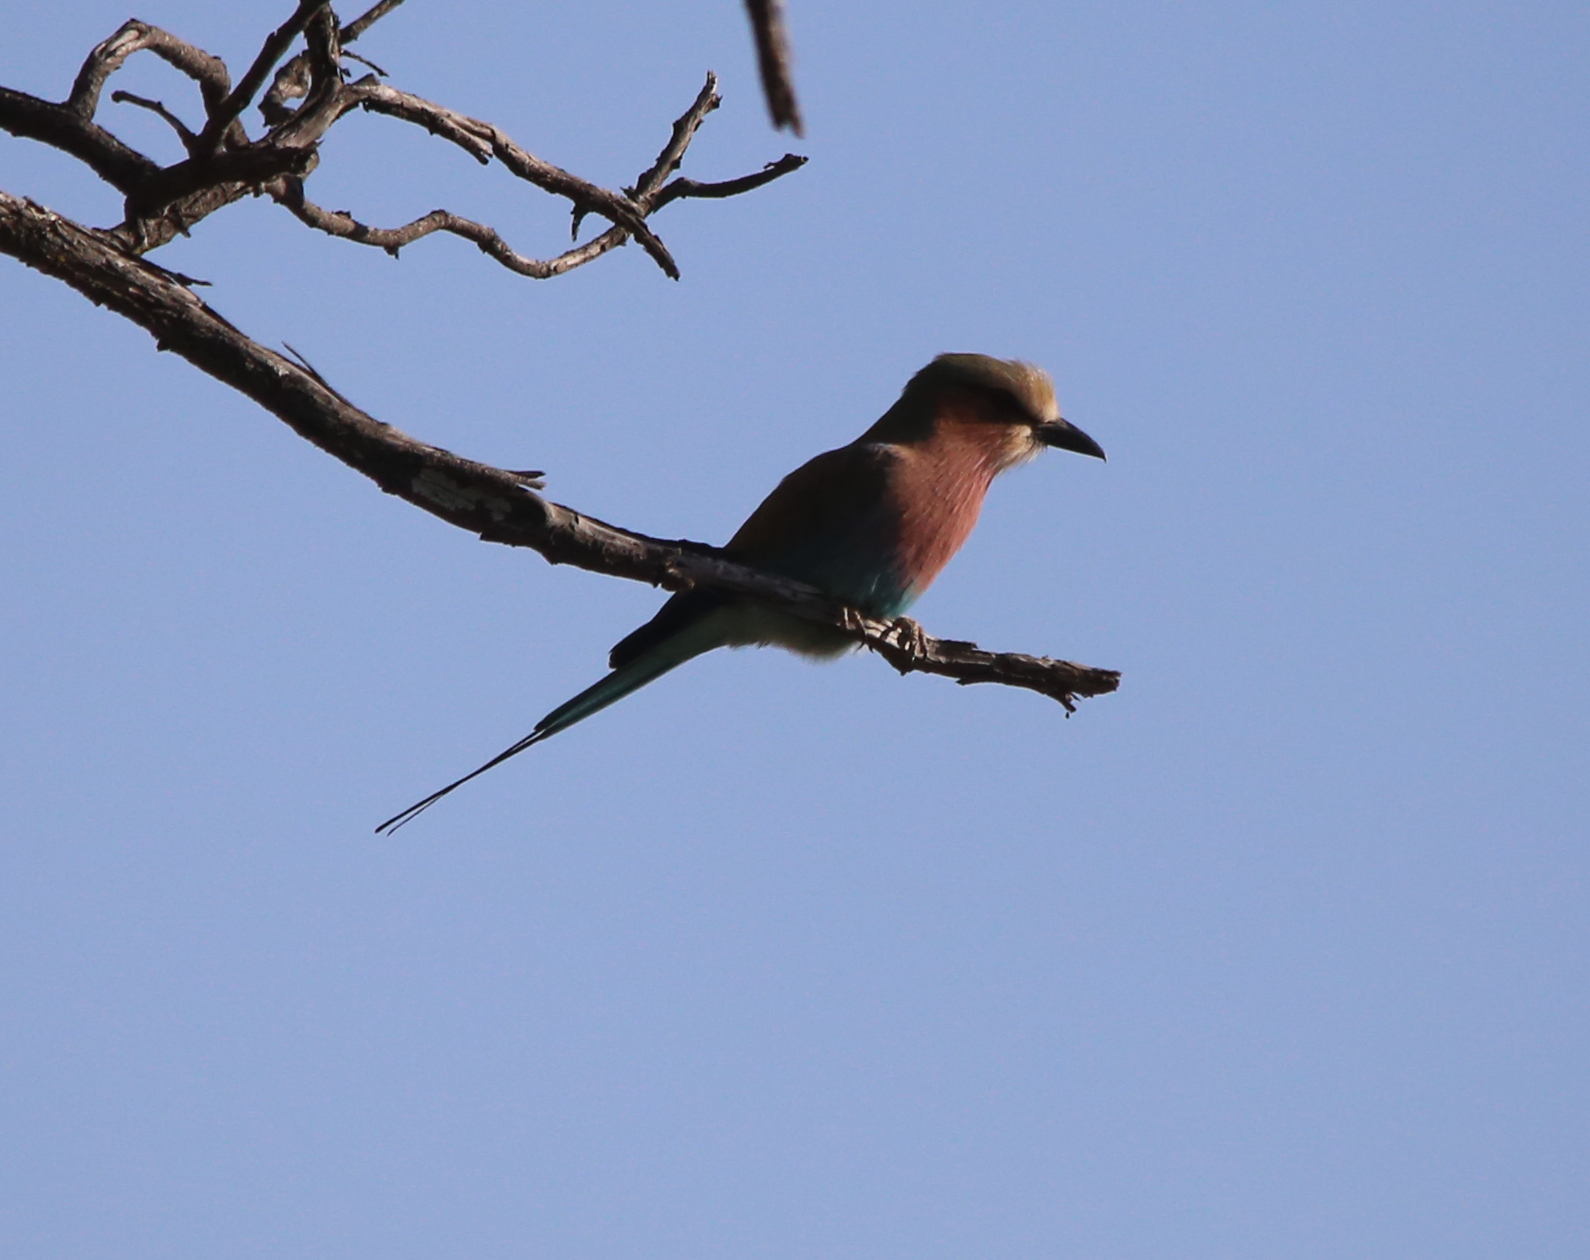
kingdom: Animalia
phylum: Chordata
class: Aves
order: Coraciiformes
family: Coraciidae
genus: Coracias
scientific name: Coracias caudatus
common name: Lilac-breasted roller
